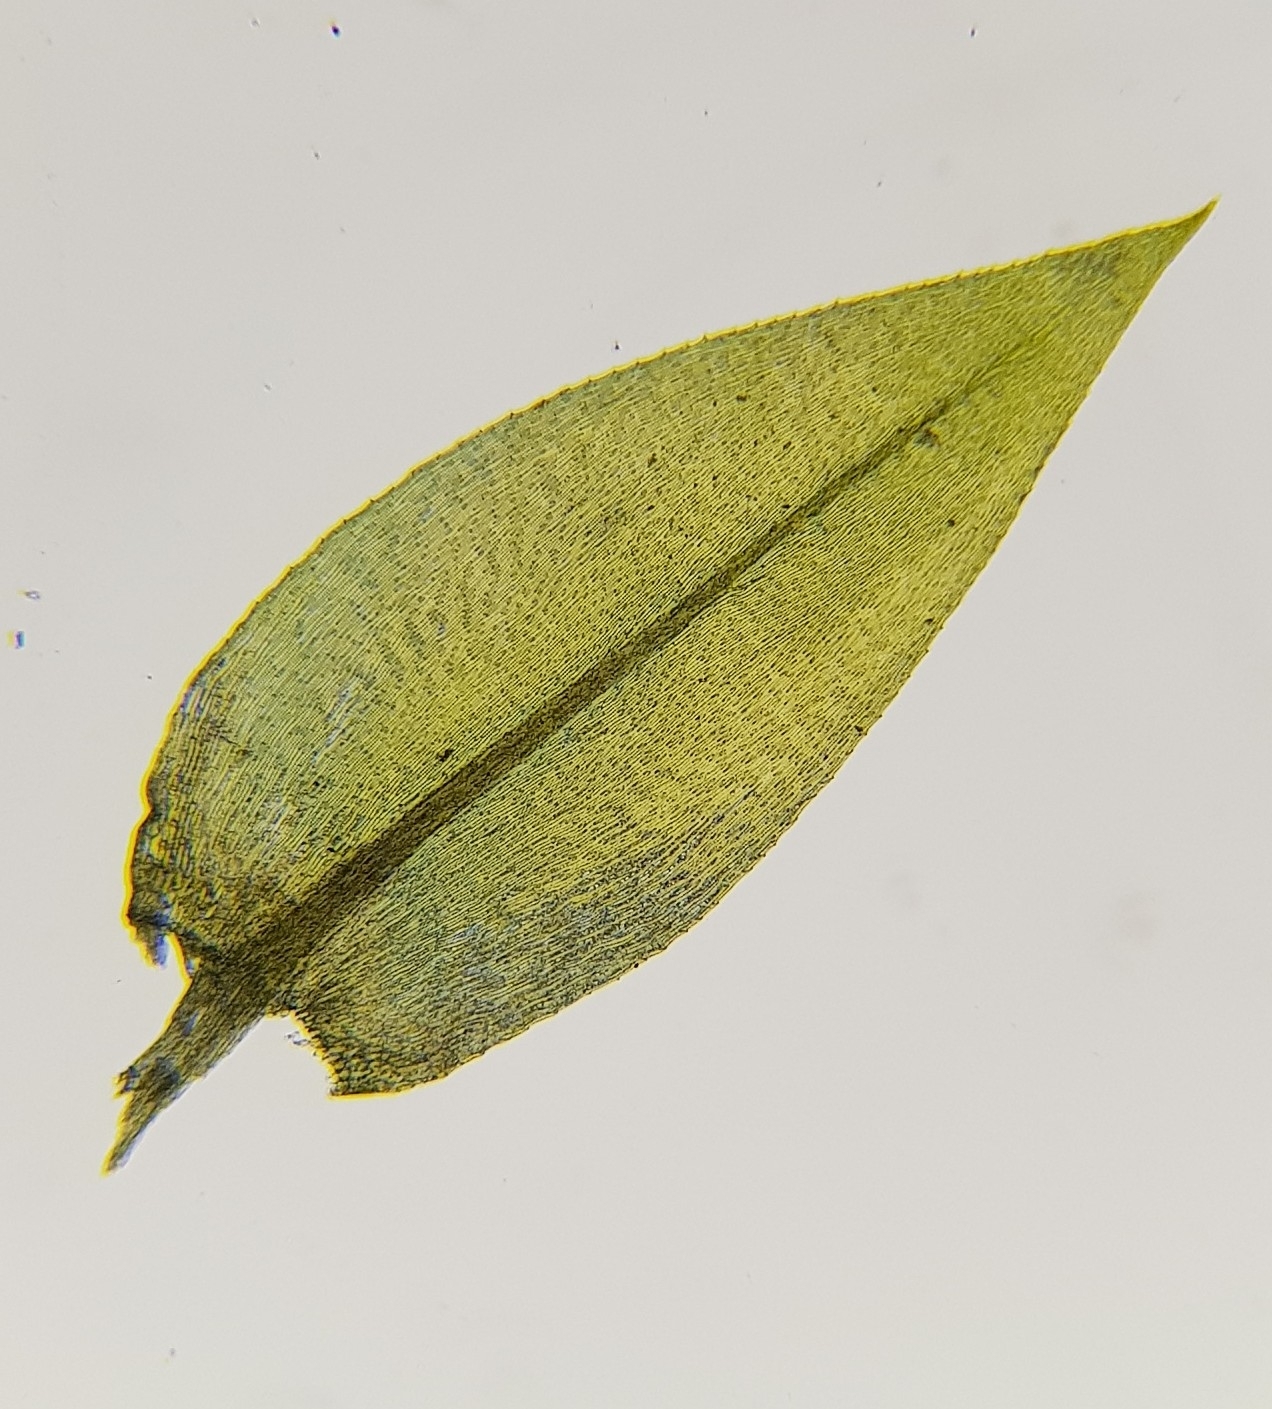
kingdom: Plantae
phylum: Bryophyta
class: Bryopsida
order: Hypnales
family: Brachytheciaceae
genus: Rhynchostegium
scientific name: Rhynchostegium riparioides
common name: Platyhypnidium moss
